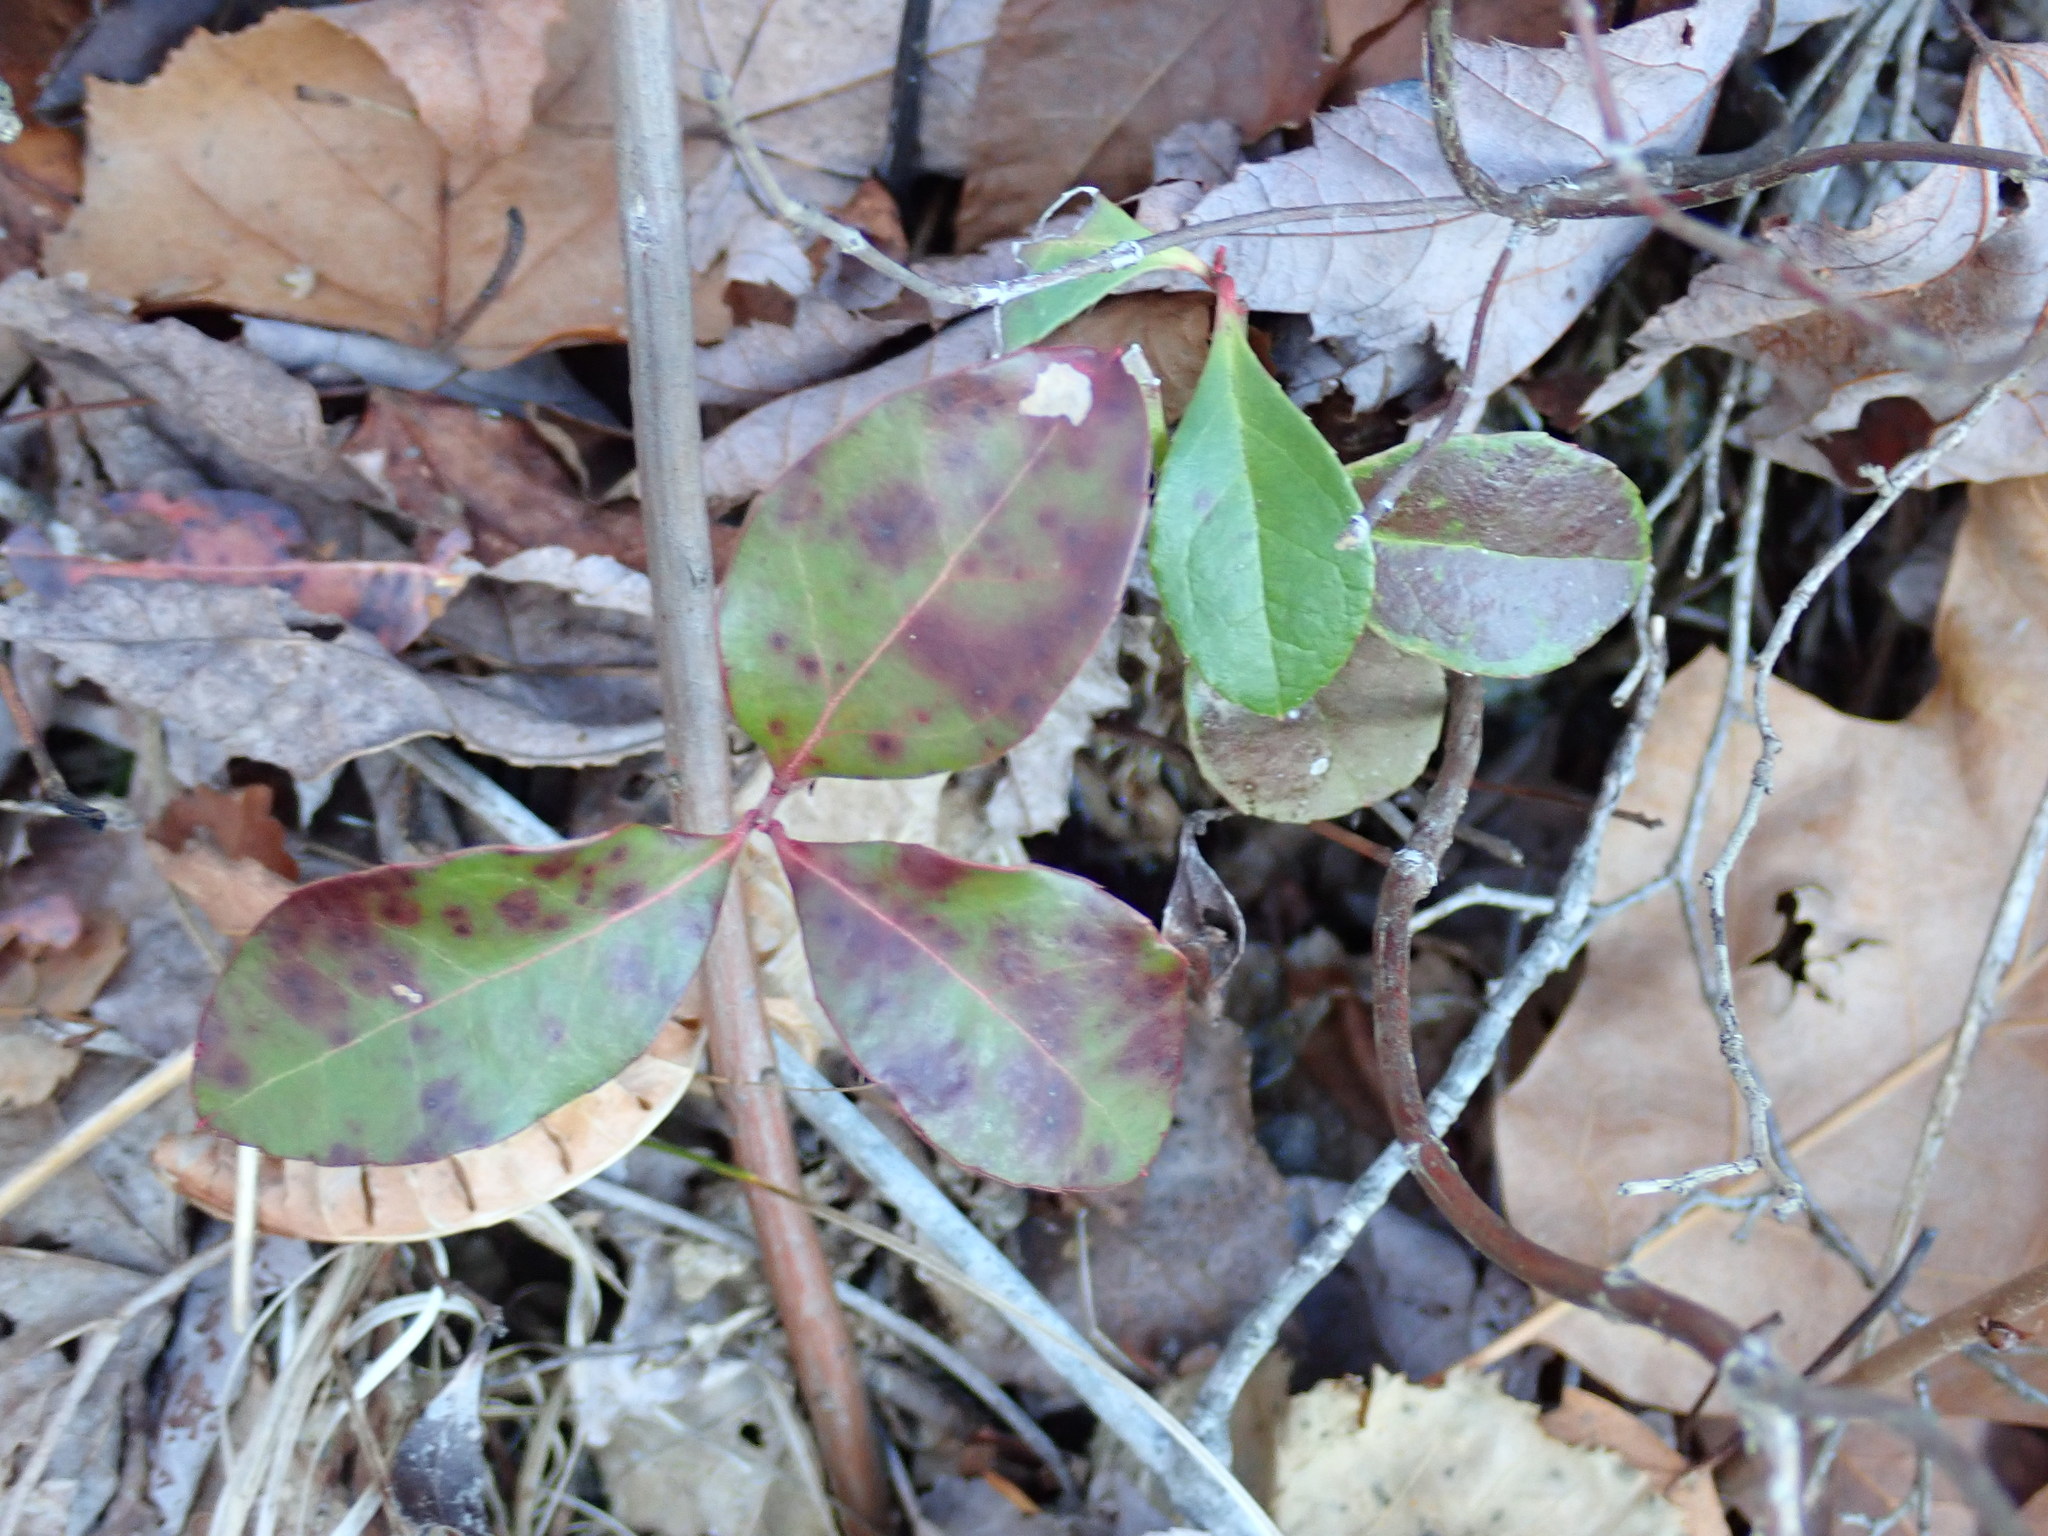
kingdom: Plantae
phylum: Tracheophyta
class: Magnoliopsida
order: Ericales
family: Ericaceae
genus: Gaultheria
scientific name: Gaultheria procumbens
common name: Checkerberry
